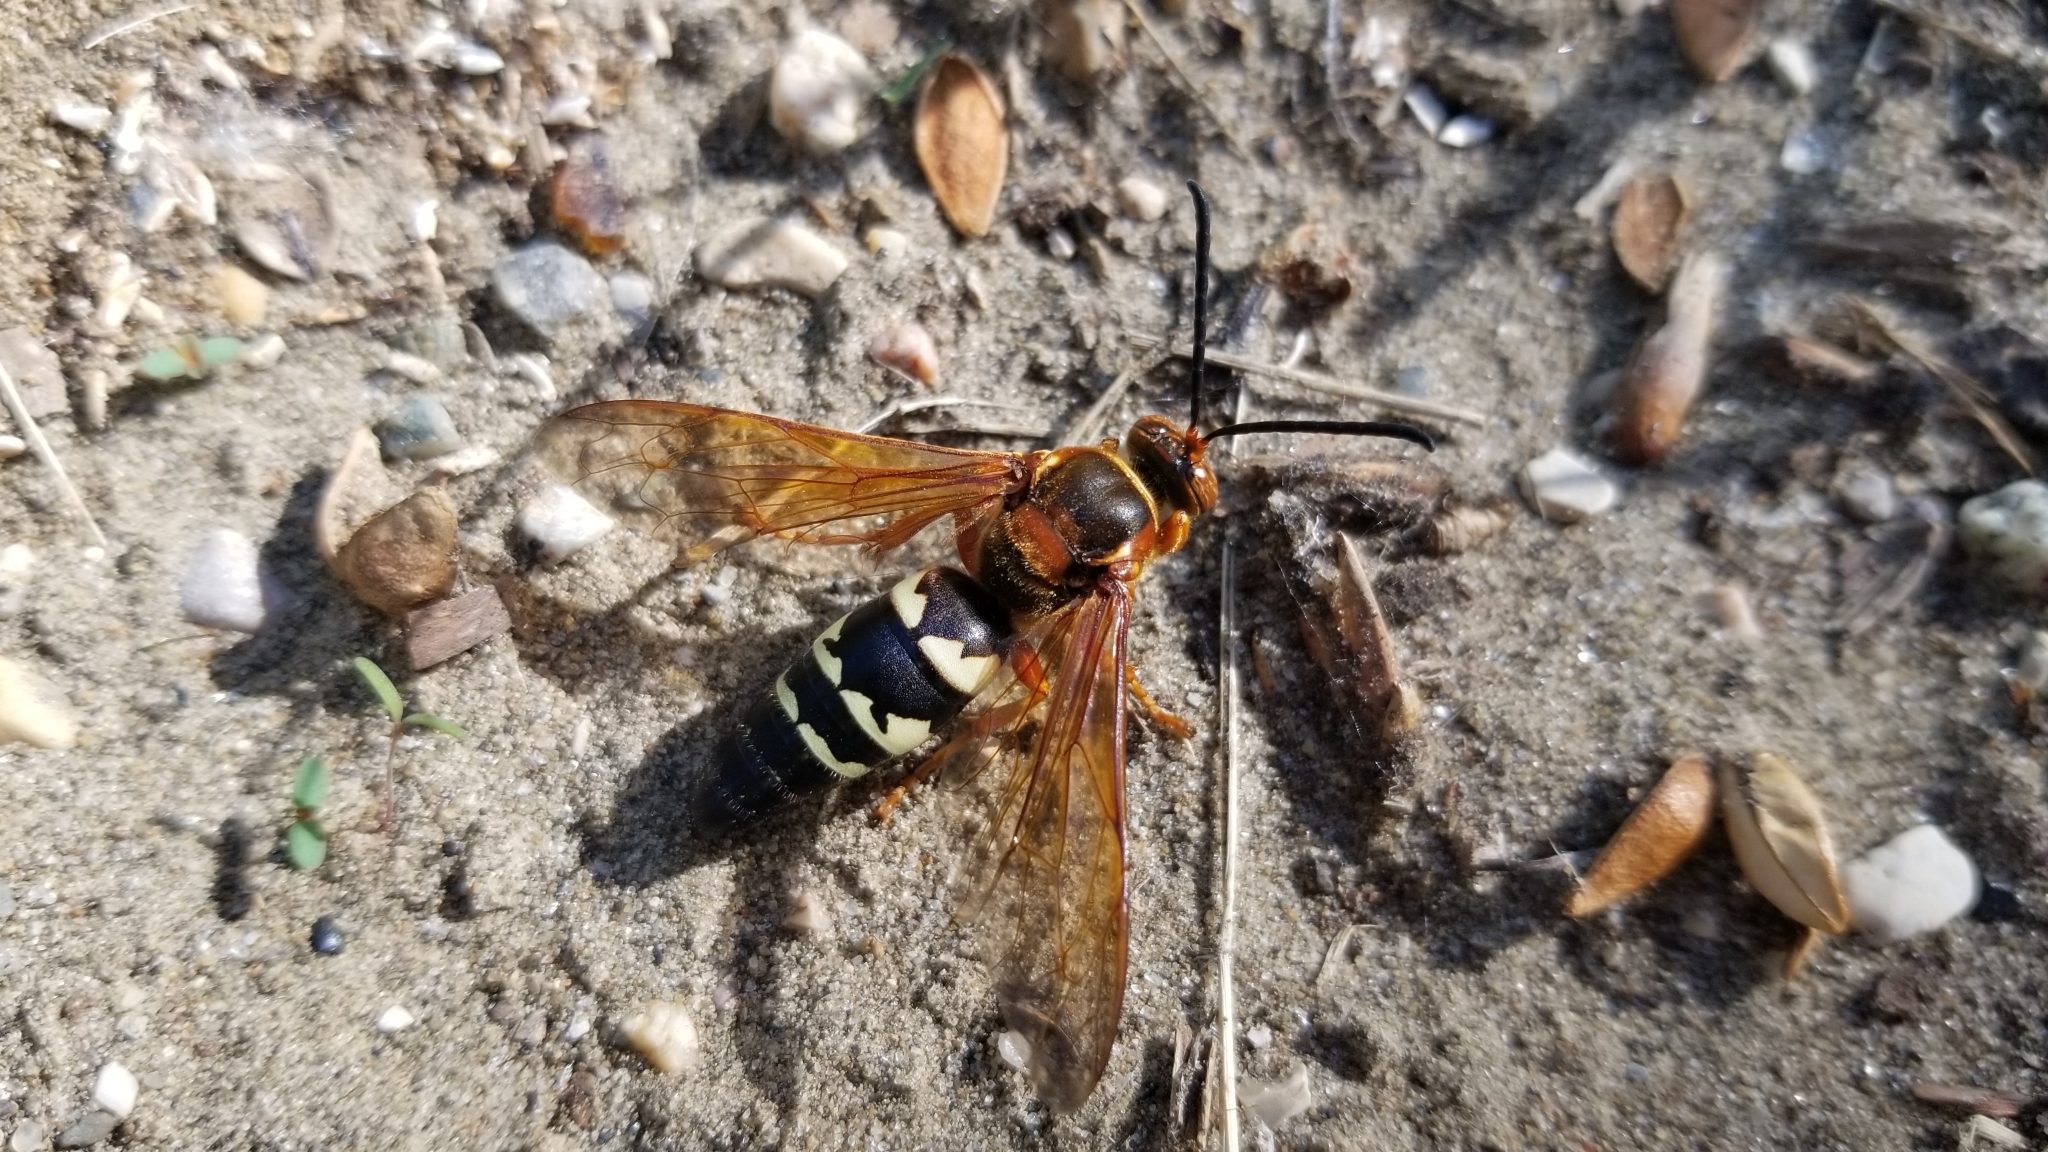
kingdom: Animalia
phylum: Arthropoda
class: Insecta
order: Hymenoptera
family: Crabronidae
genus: Sphecius
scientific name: Sphecius speciosus
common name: Cicada killer
